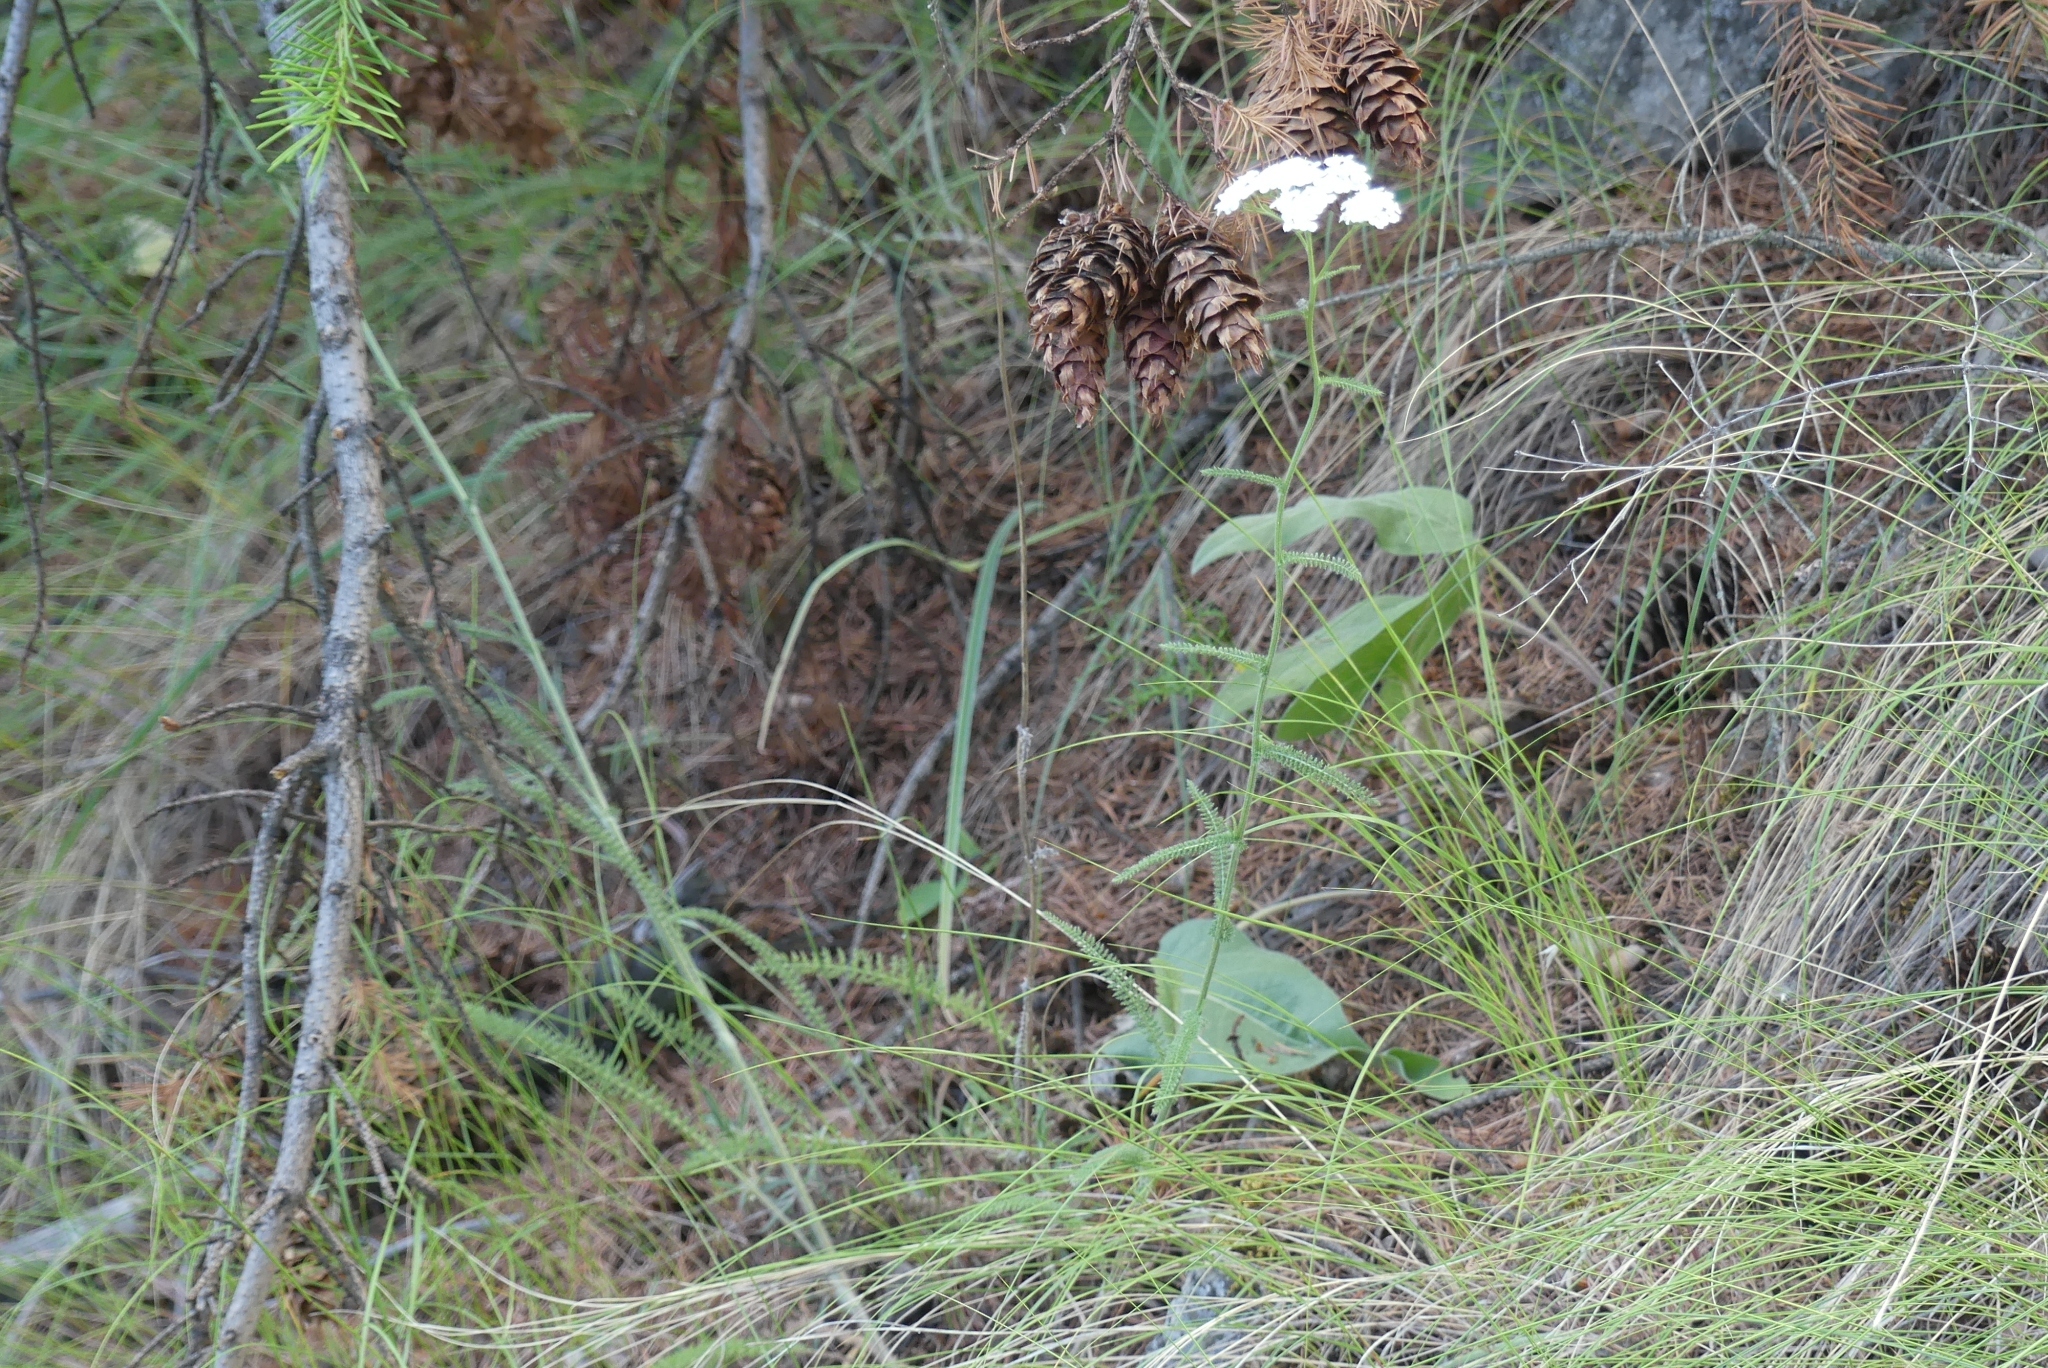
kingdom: Plantae
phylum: Tracheophyta
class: Magnoliopsida
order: Asterales
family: Asteraceae
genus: Achillea
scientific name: Achillea millefolium
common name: Yarrow
